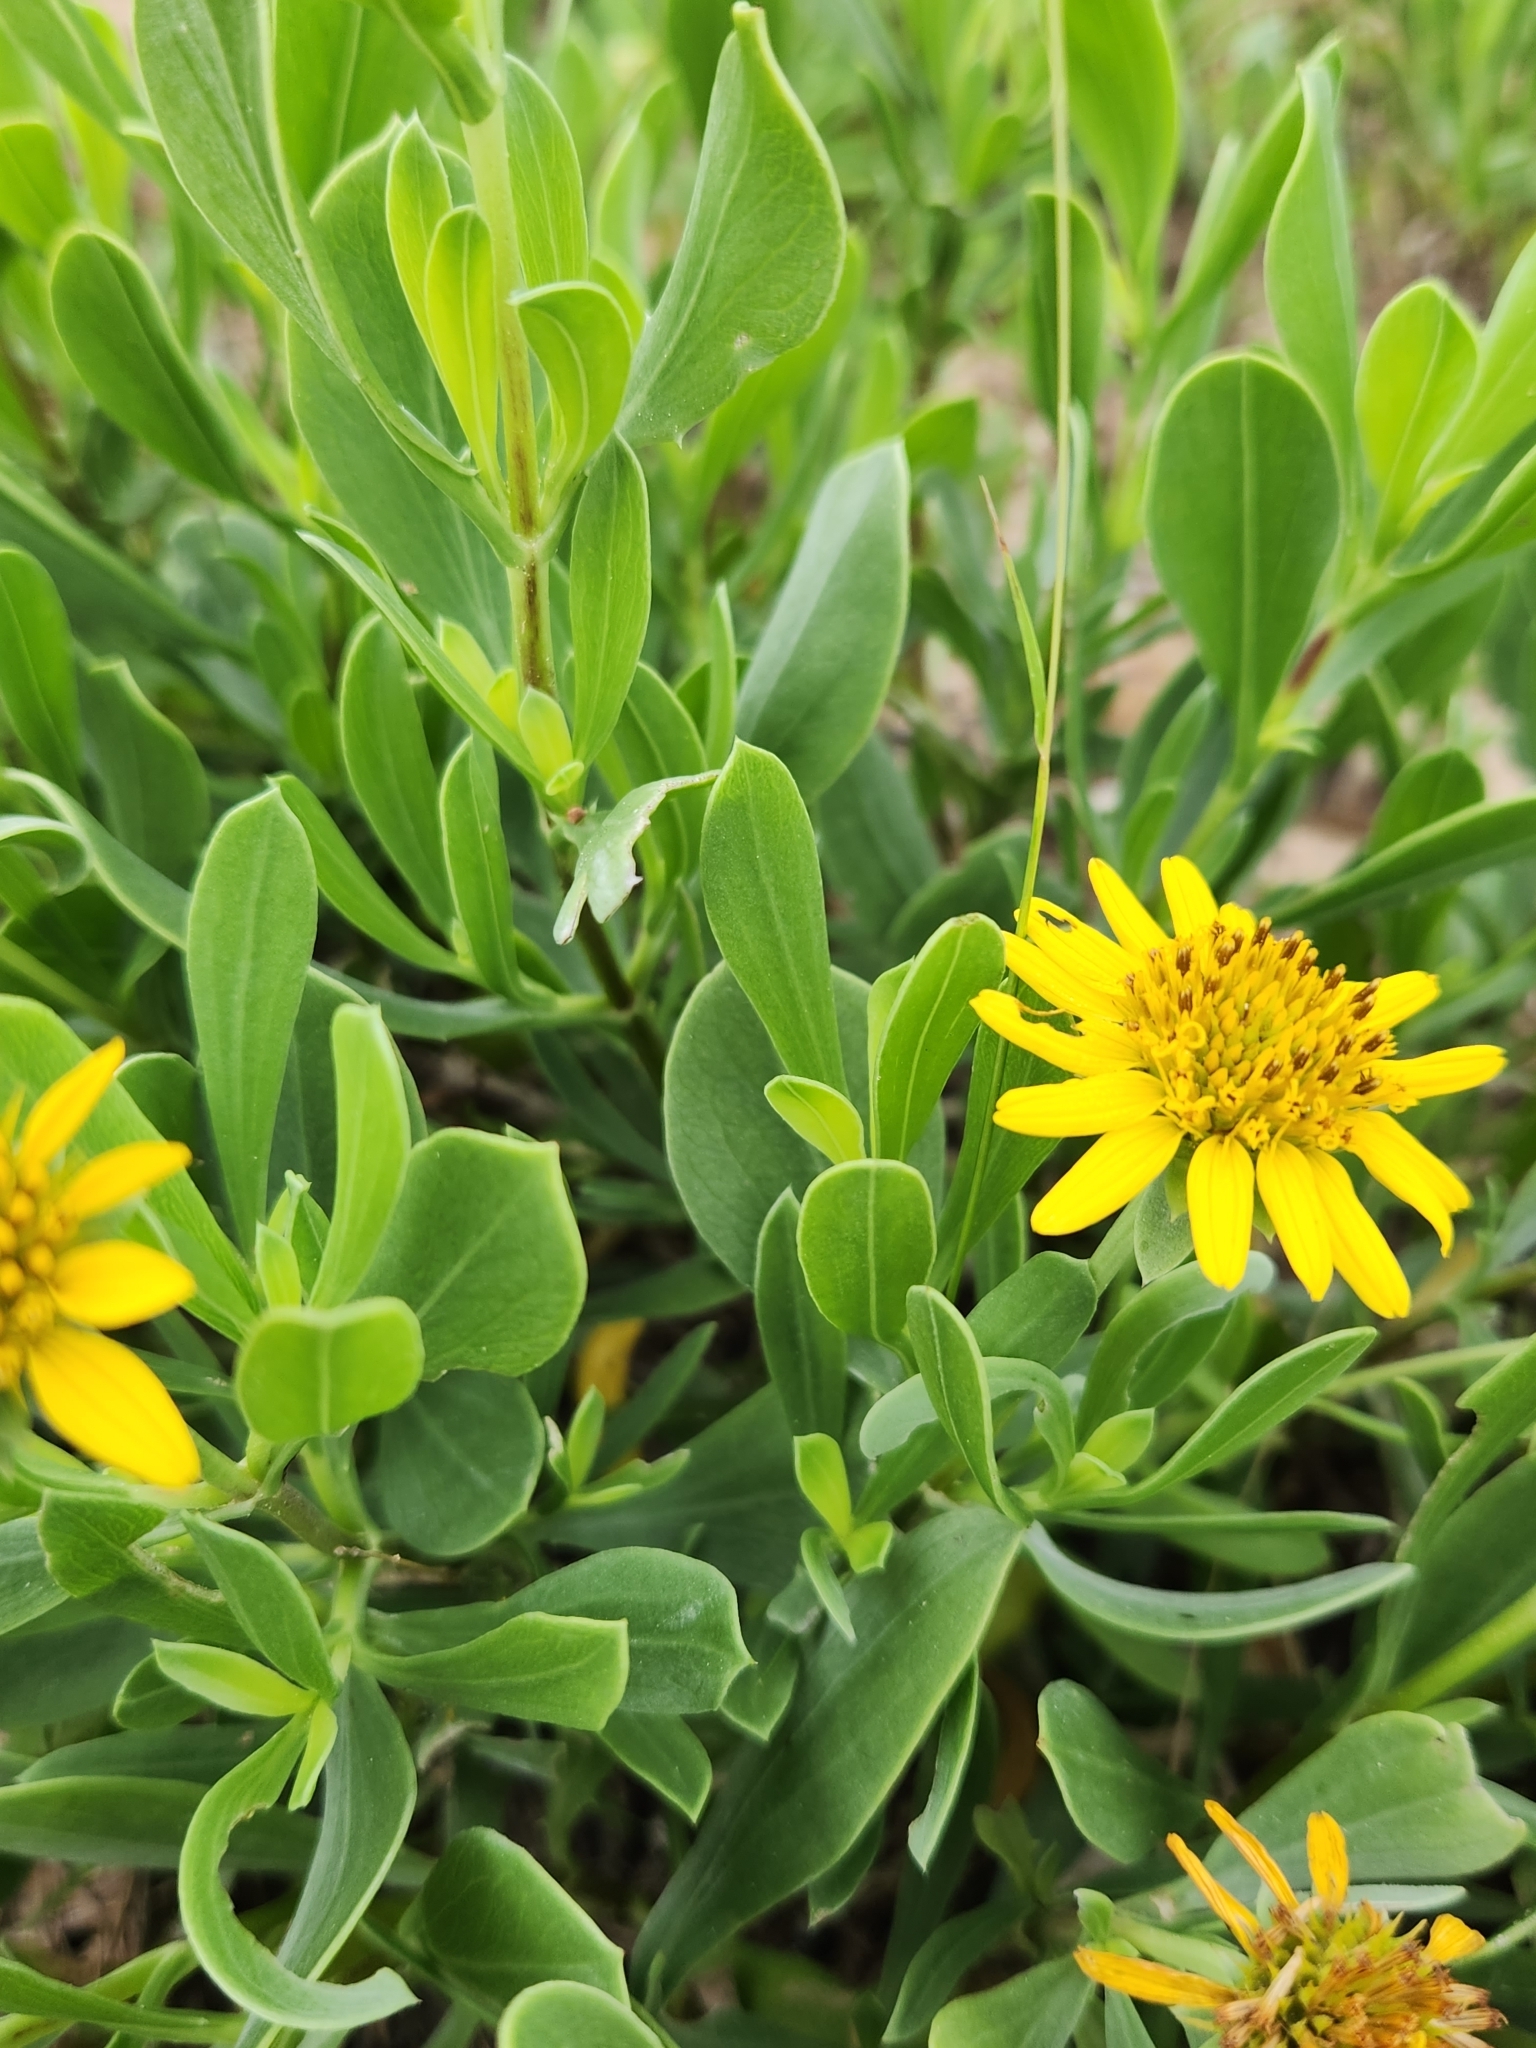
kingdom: Plantae
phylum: Tracheophyta
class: Magnoliopsida
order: Asterales
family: Asteraceae
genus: Borrichia
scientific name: Borrichia frutescens
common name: Sea oxeye
